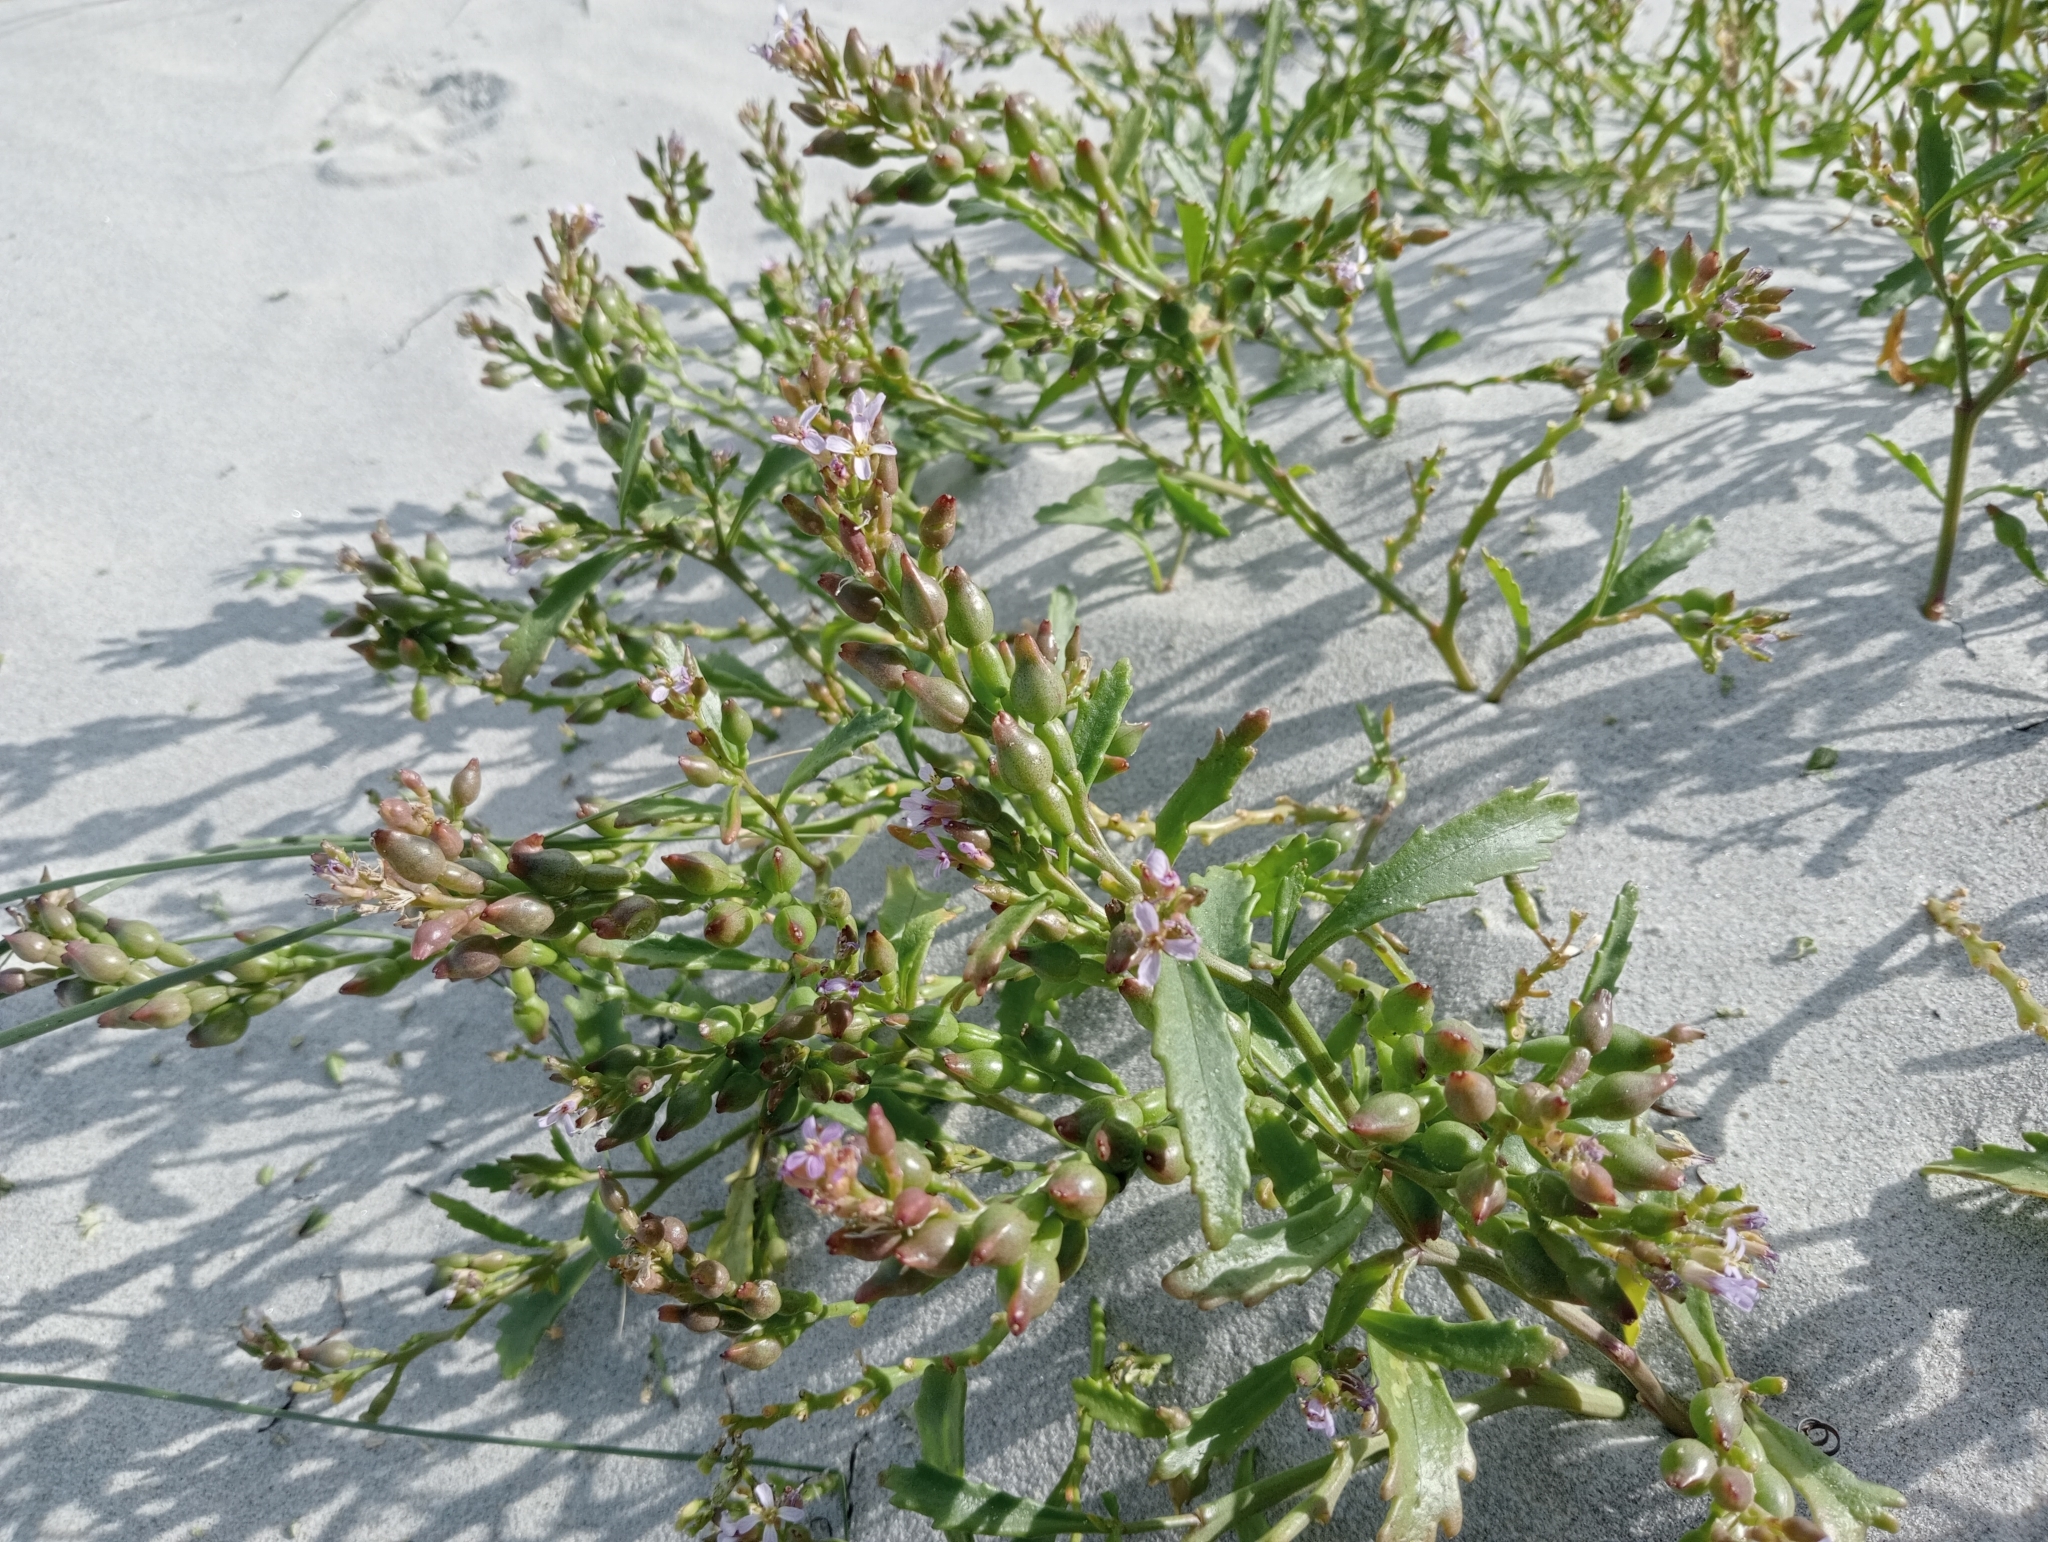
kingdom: Plantae
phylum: Tracheophyta
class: Magnoliopsida
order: Brassicales
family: Brassicaceae
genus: Cakile
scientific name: Cakile edentula
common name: American sea rocket
